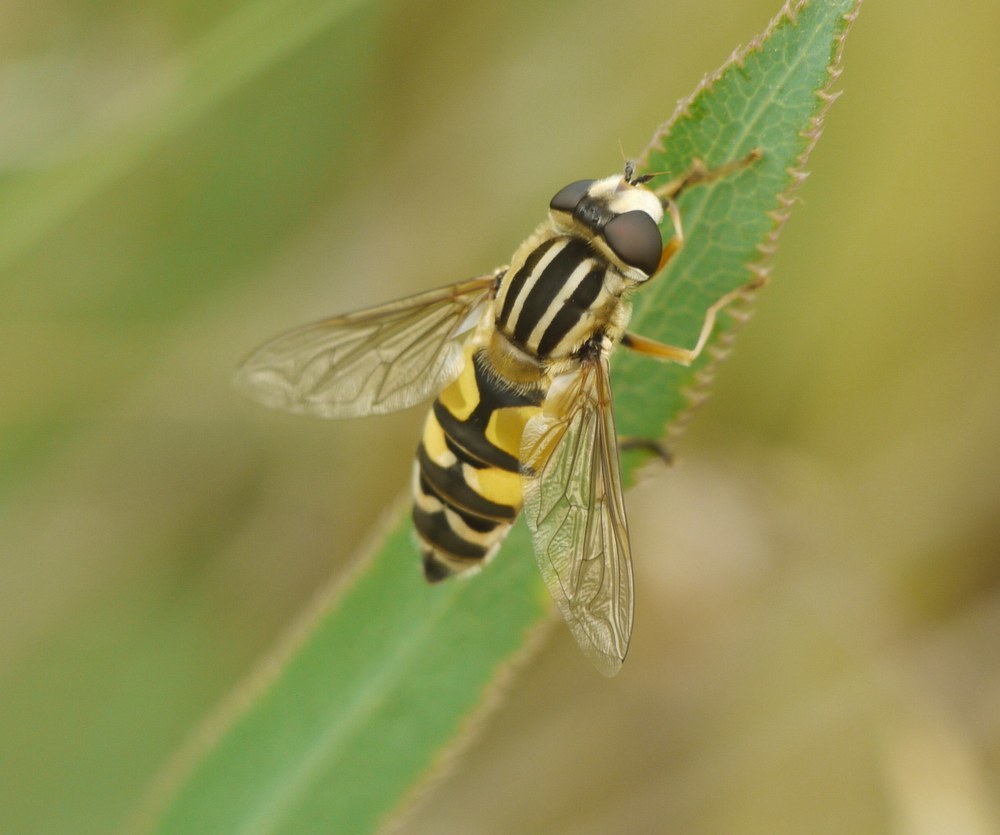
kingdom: Animalia
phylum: Arthropoda
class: Insecta
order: Diptera
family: Syrphidae
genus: Helophilus
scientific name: Helophilus trivittatus
